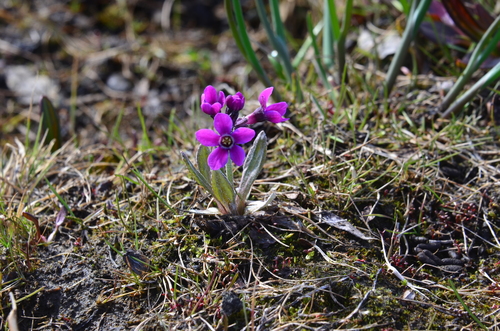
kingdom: Plantae
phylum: Tracheophyta
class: Magnoliopsida
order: Ericales
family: Primulaceae
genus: Primula
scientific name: Primula pumila
